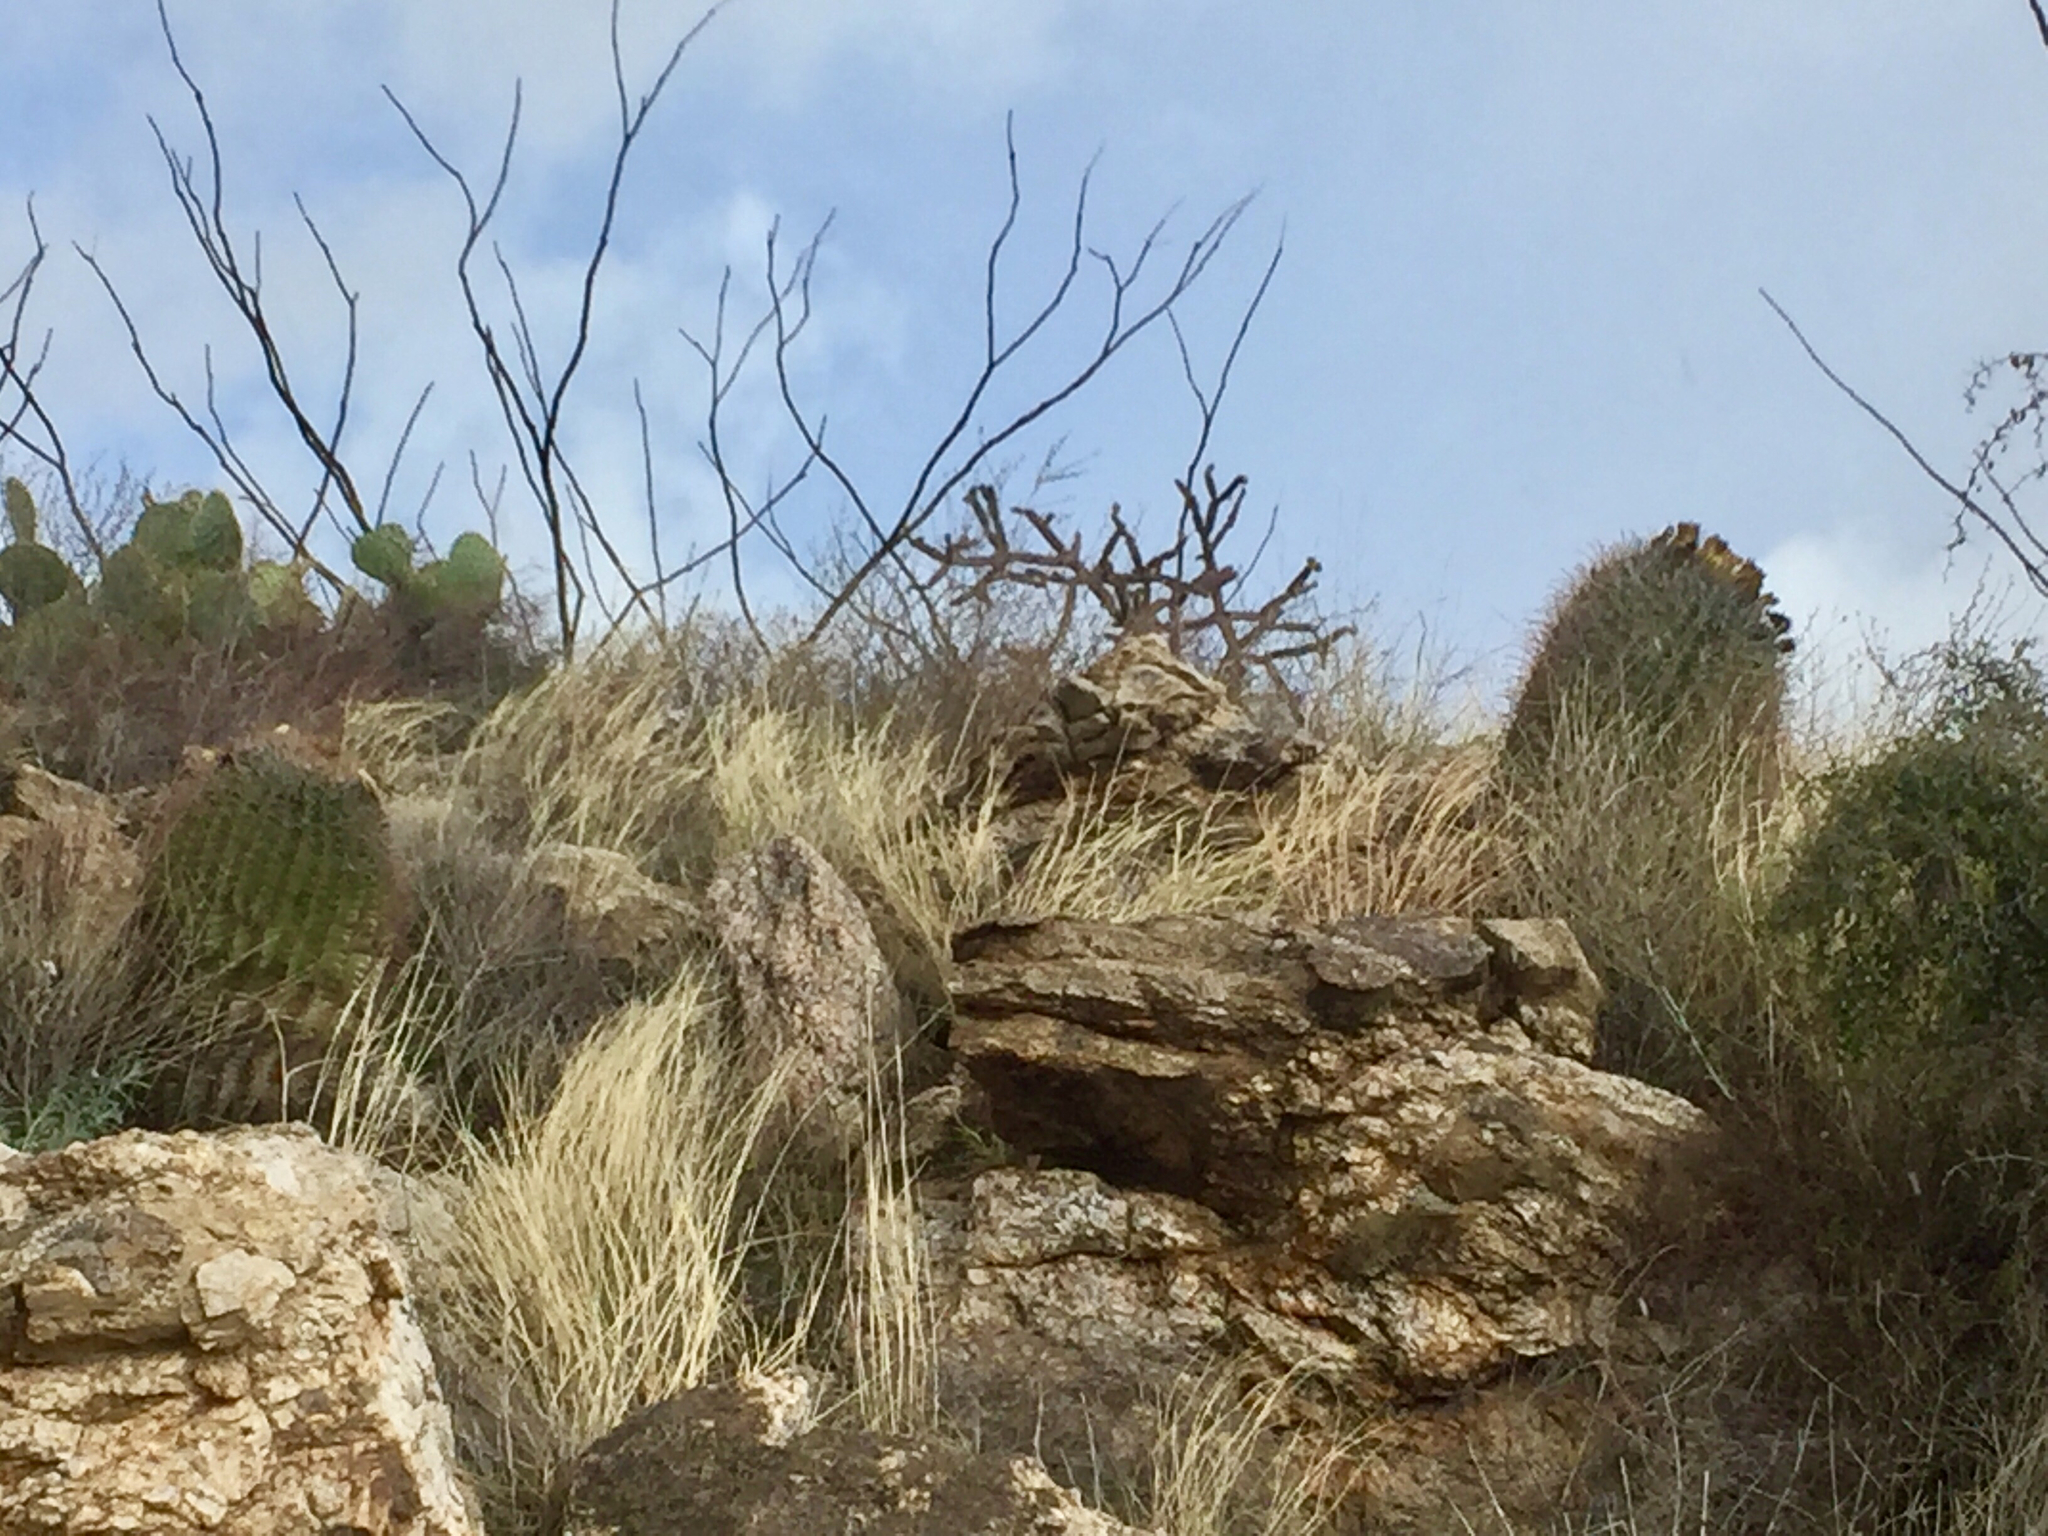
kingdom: Plantae
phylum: Tracheophyta
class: Magnoliopsida
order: Caryophyllales
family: Cactaceae
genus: Ferocactus
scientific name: Ferocactus wislizeni
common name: Candy barrel cactus
